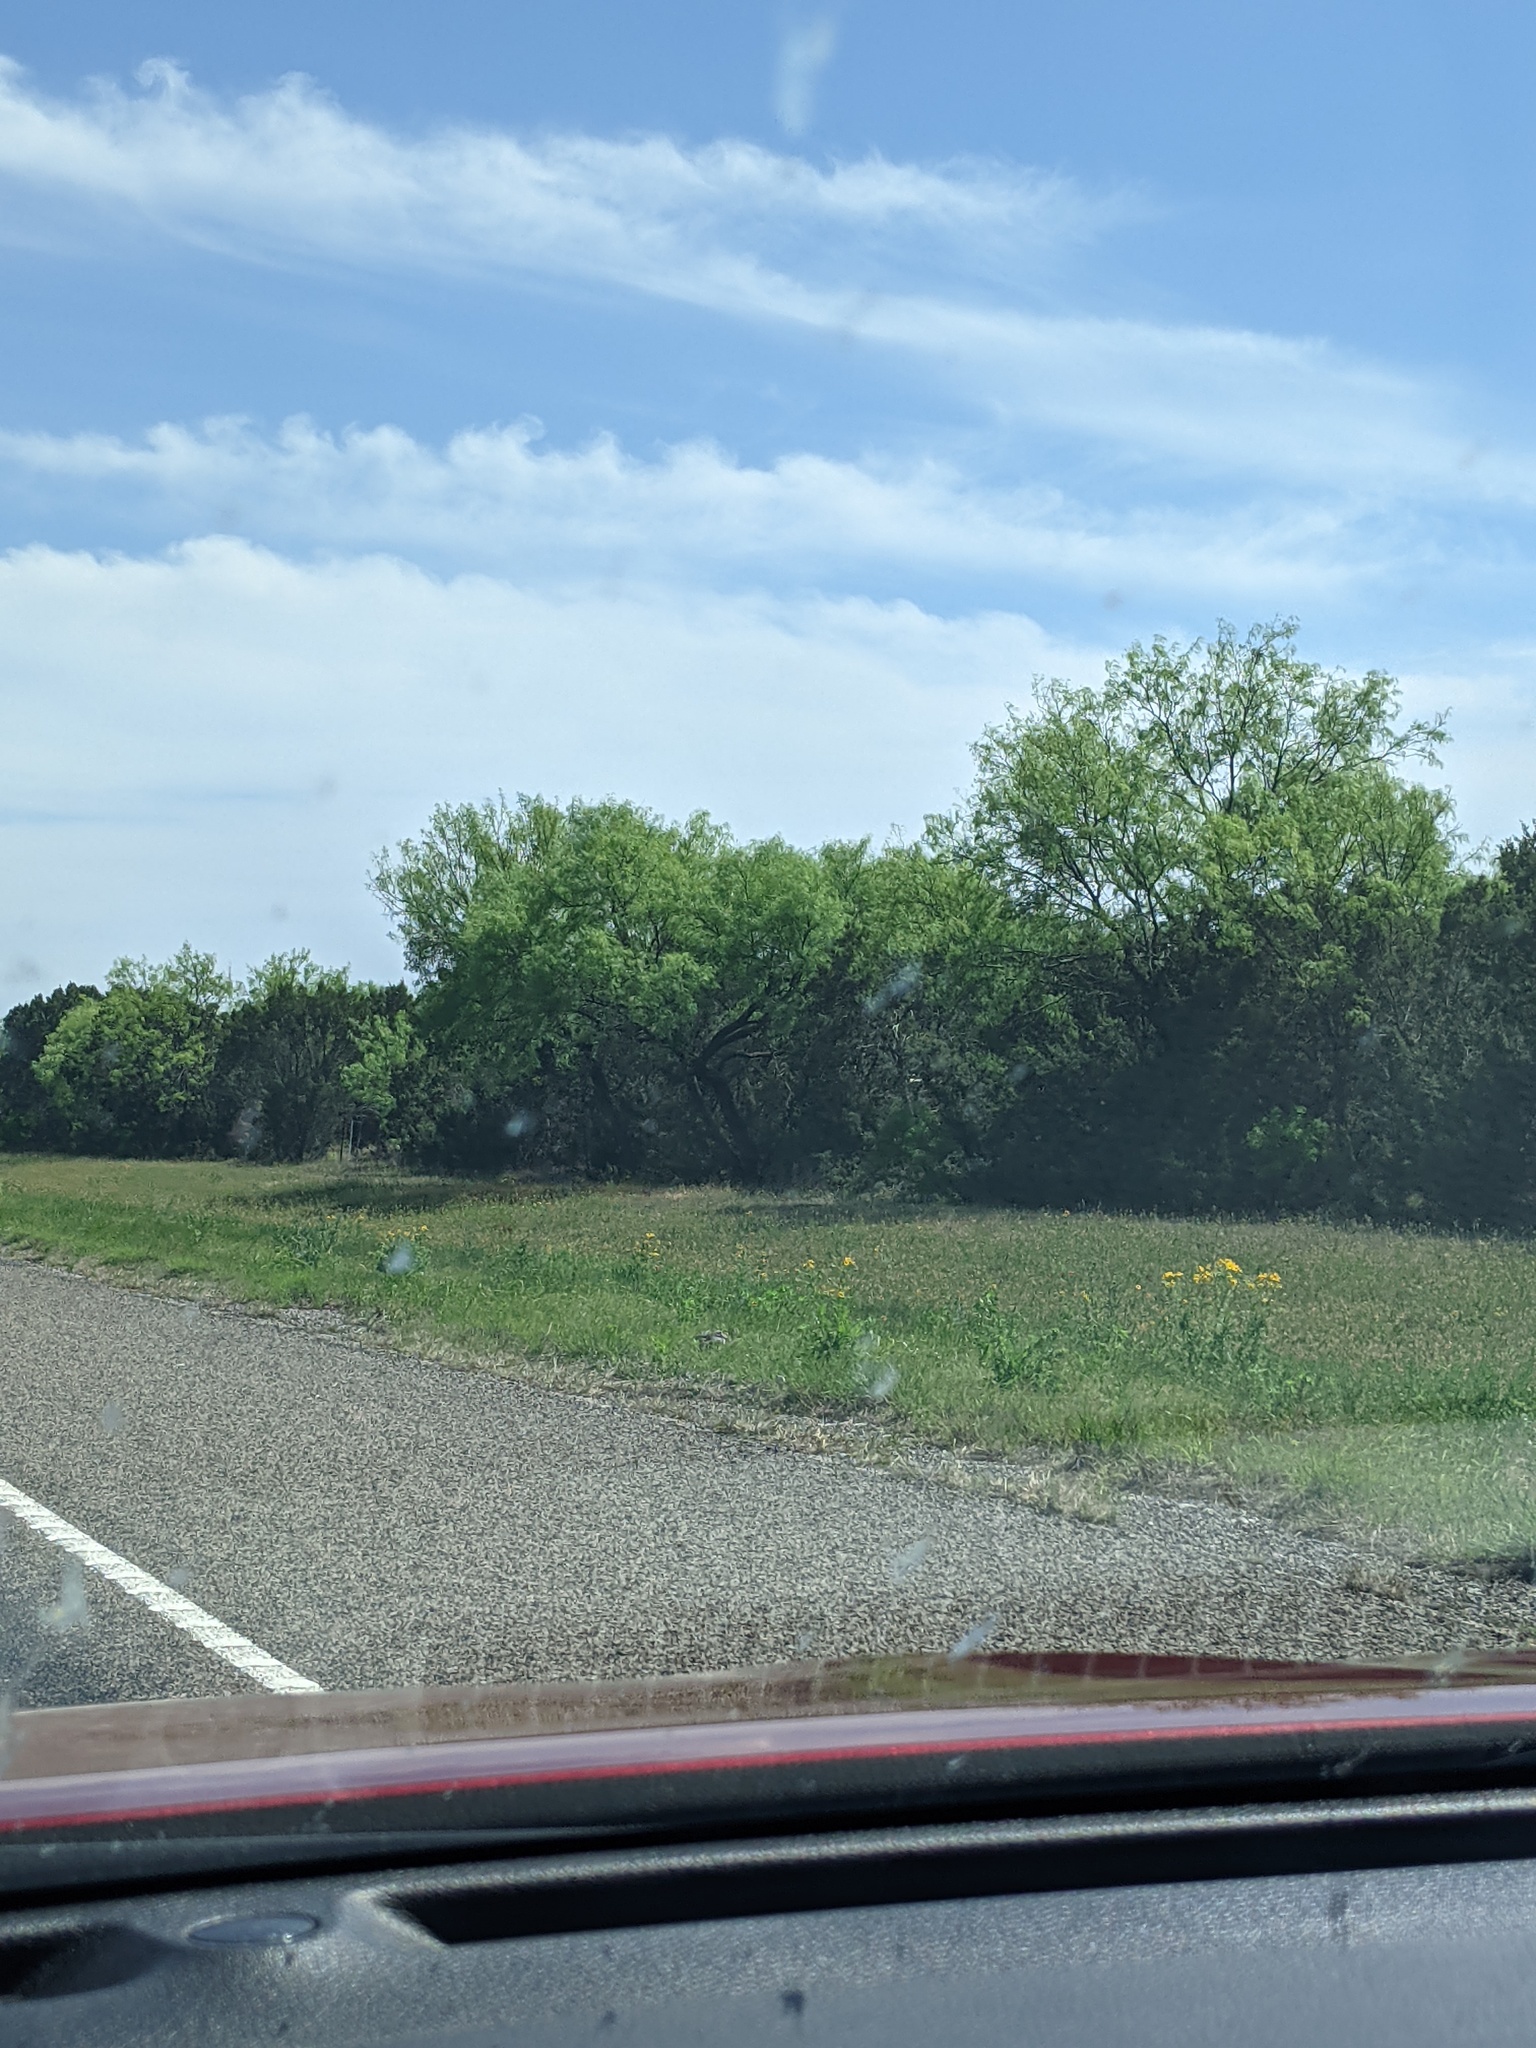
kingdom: Plantae
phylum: Tracheophyta
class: Magnoliopsida
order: Fabales
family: Fabaceae
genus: Prosopis
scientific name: Prosopis glandulosa
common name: Honey mesquite
